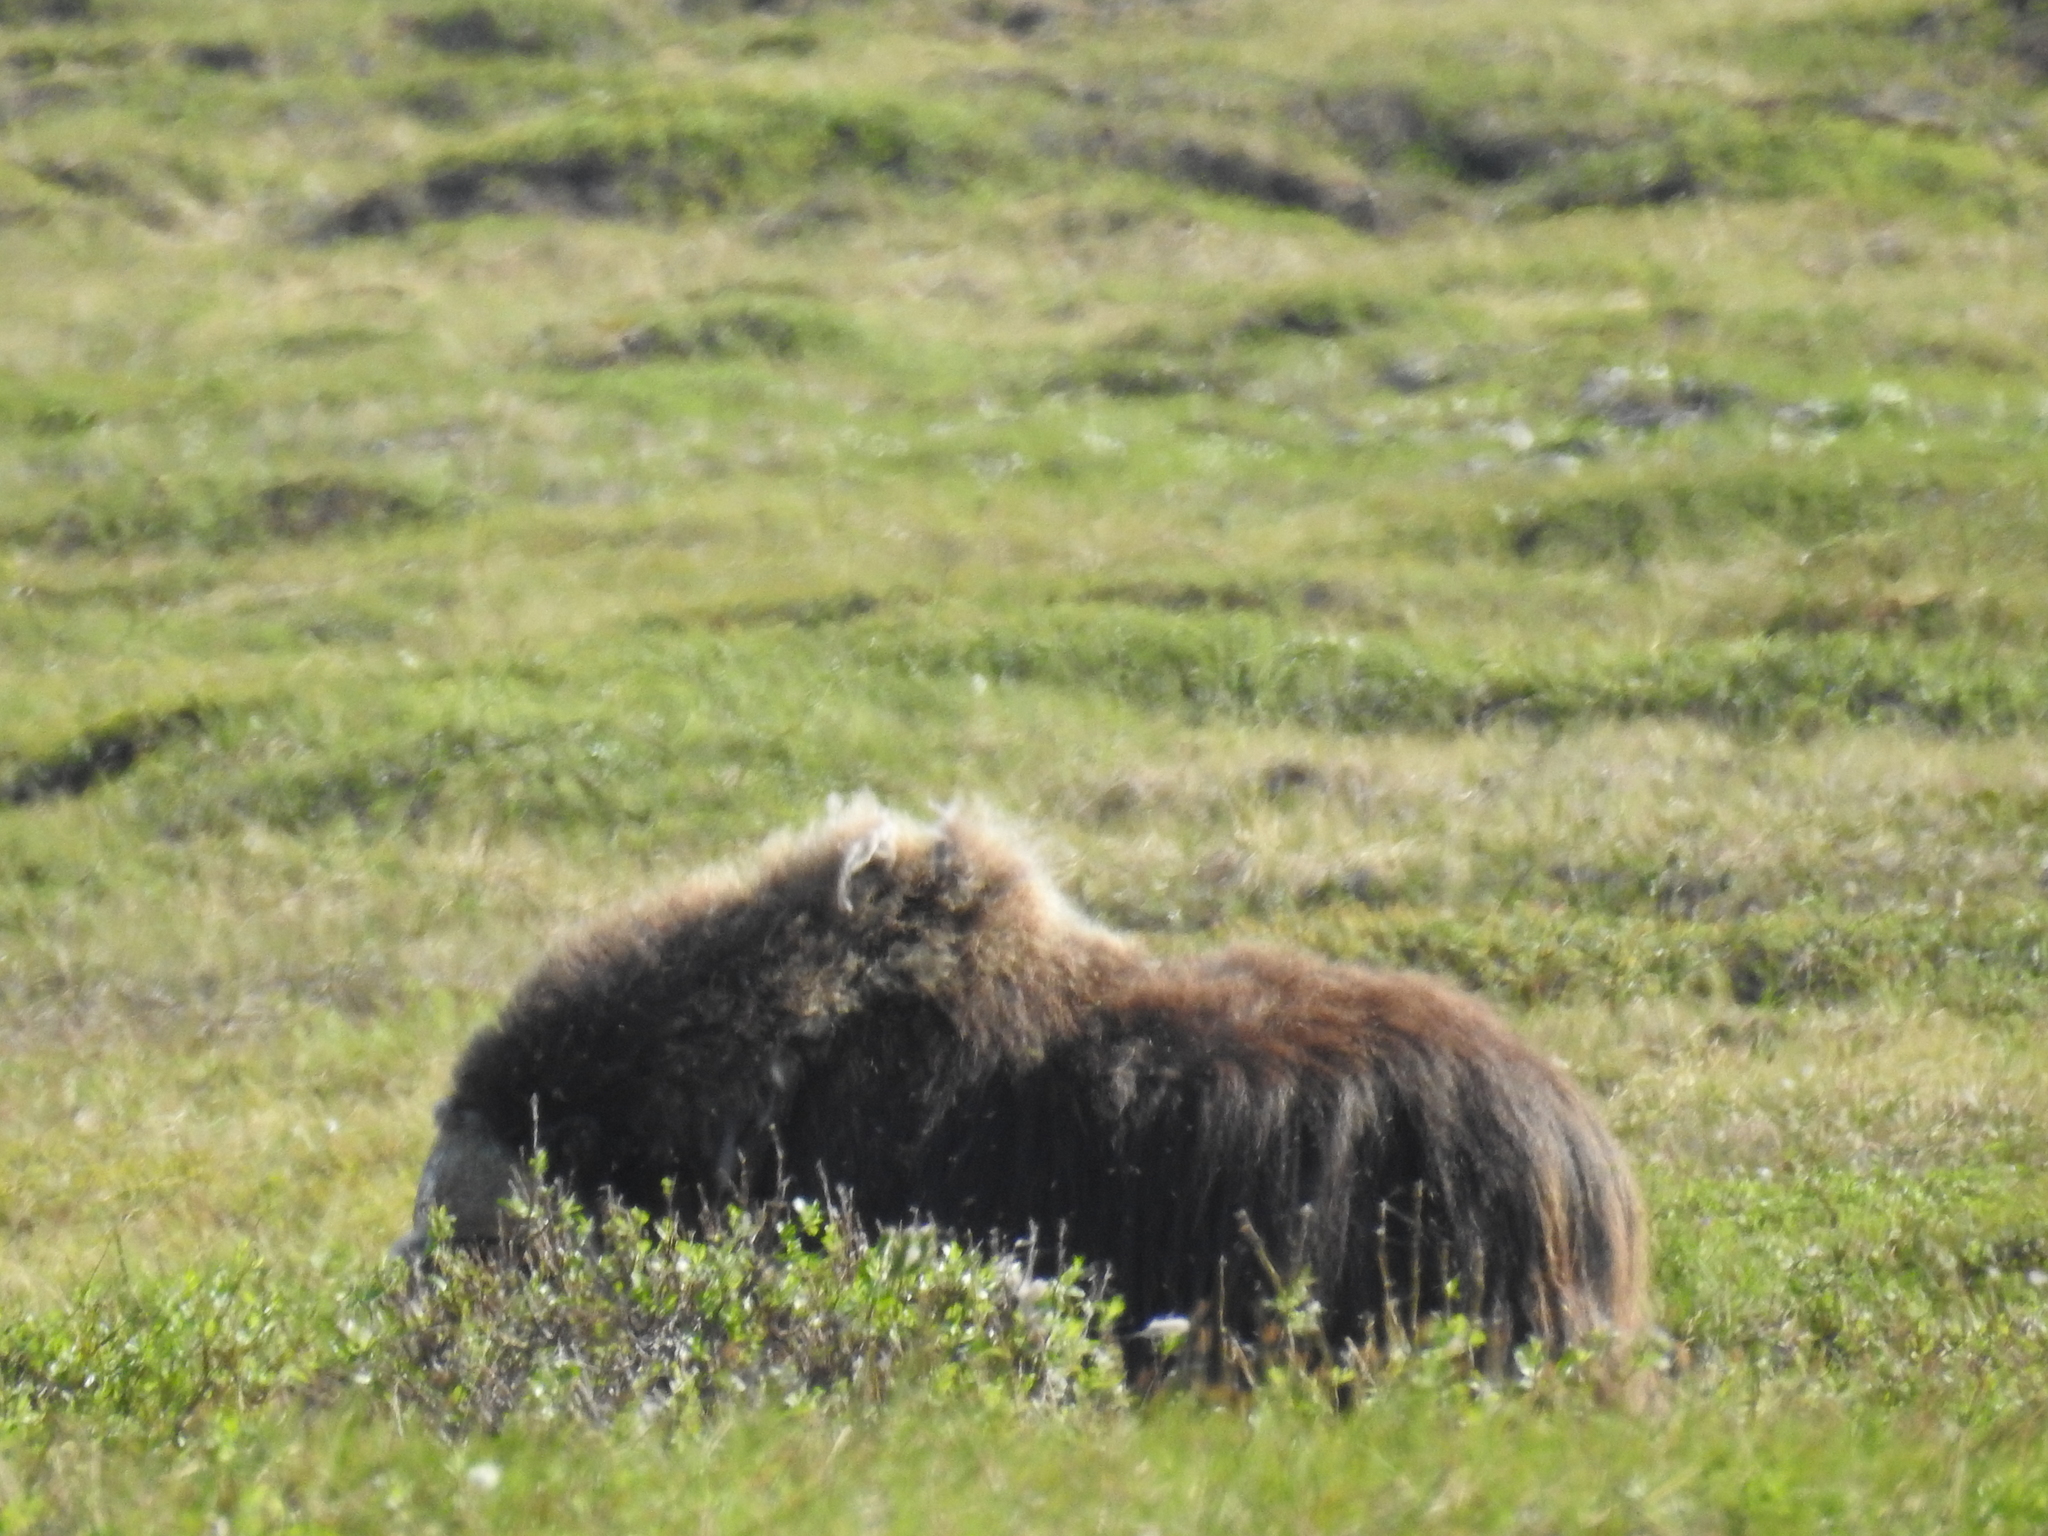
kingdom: Animalia
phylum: Chordata
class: Mammalia
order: Artiodactyla
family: Bovidae
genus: Ovibos
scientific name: Ovibos moschatus
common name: Muskox
